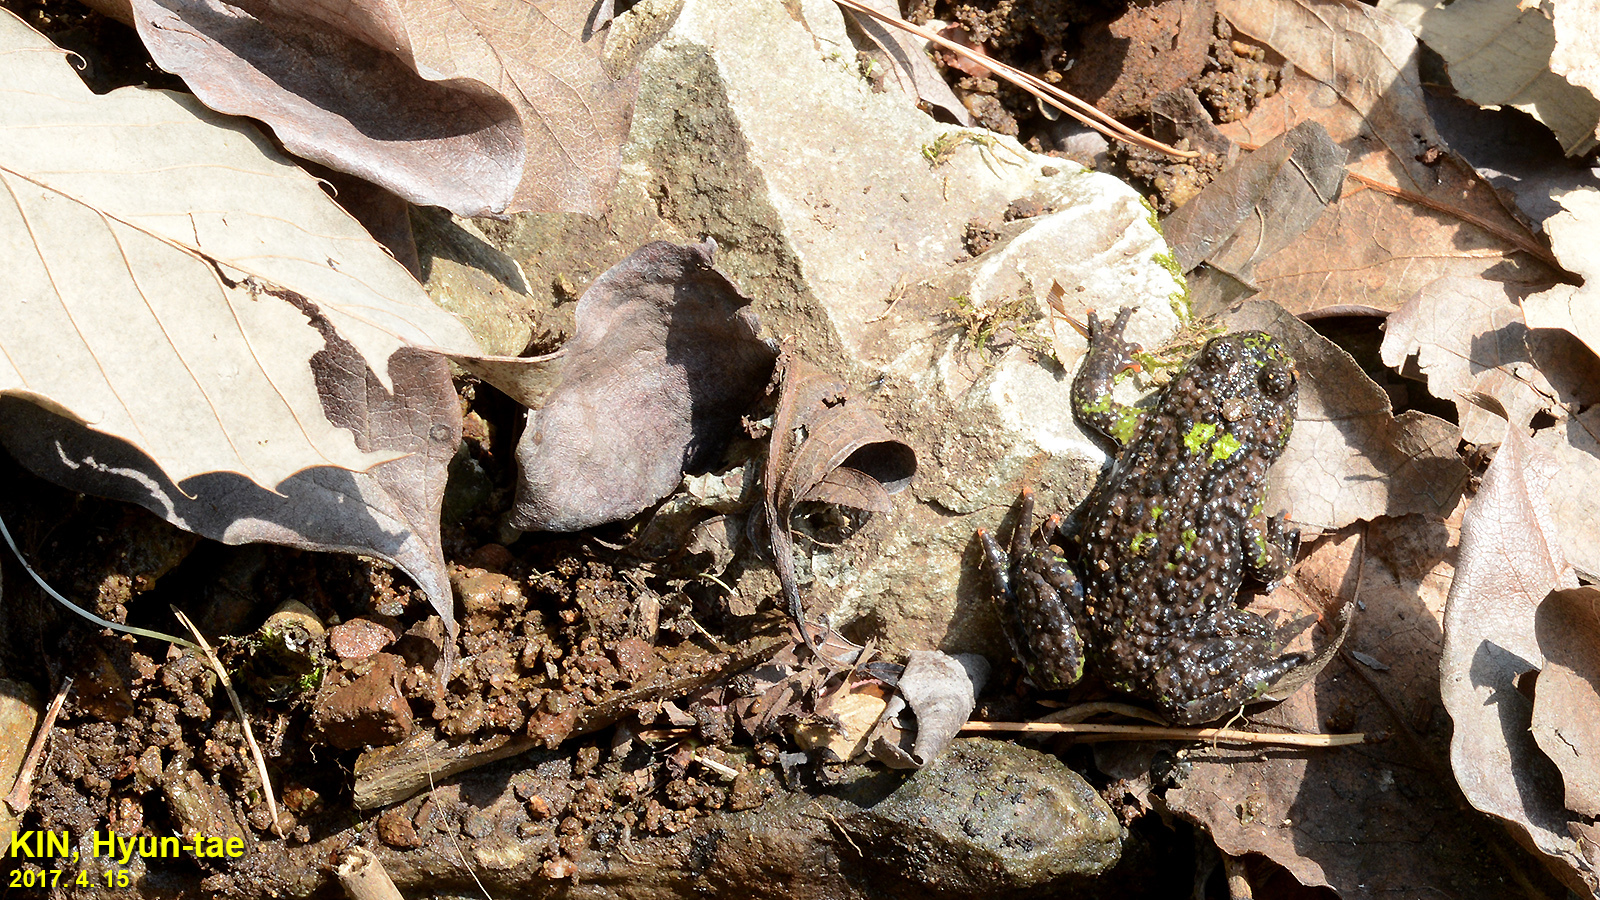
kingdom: Animalia
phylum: Chordata
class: Amphibia
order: Anura
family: Bombinatoridae
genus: Bombina
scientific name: Bombina orientalis
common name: Oriental firebelly toad
